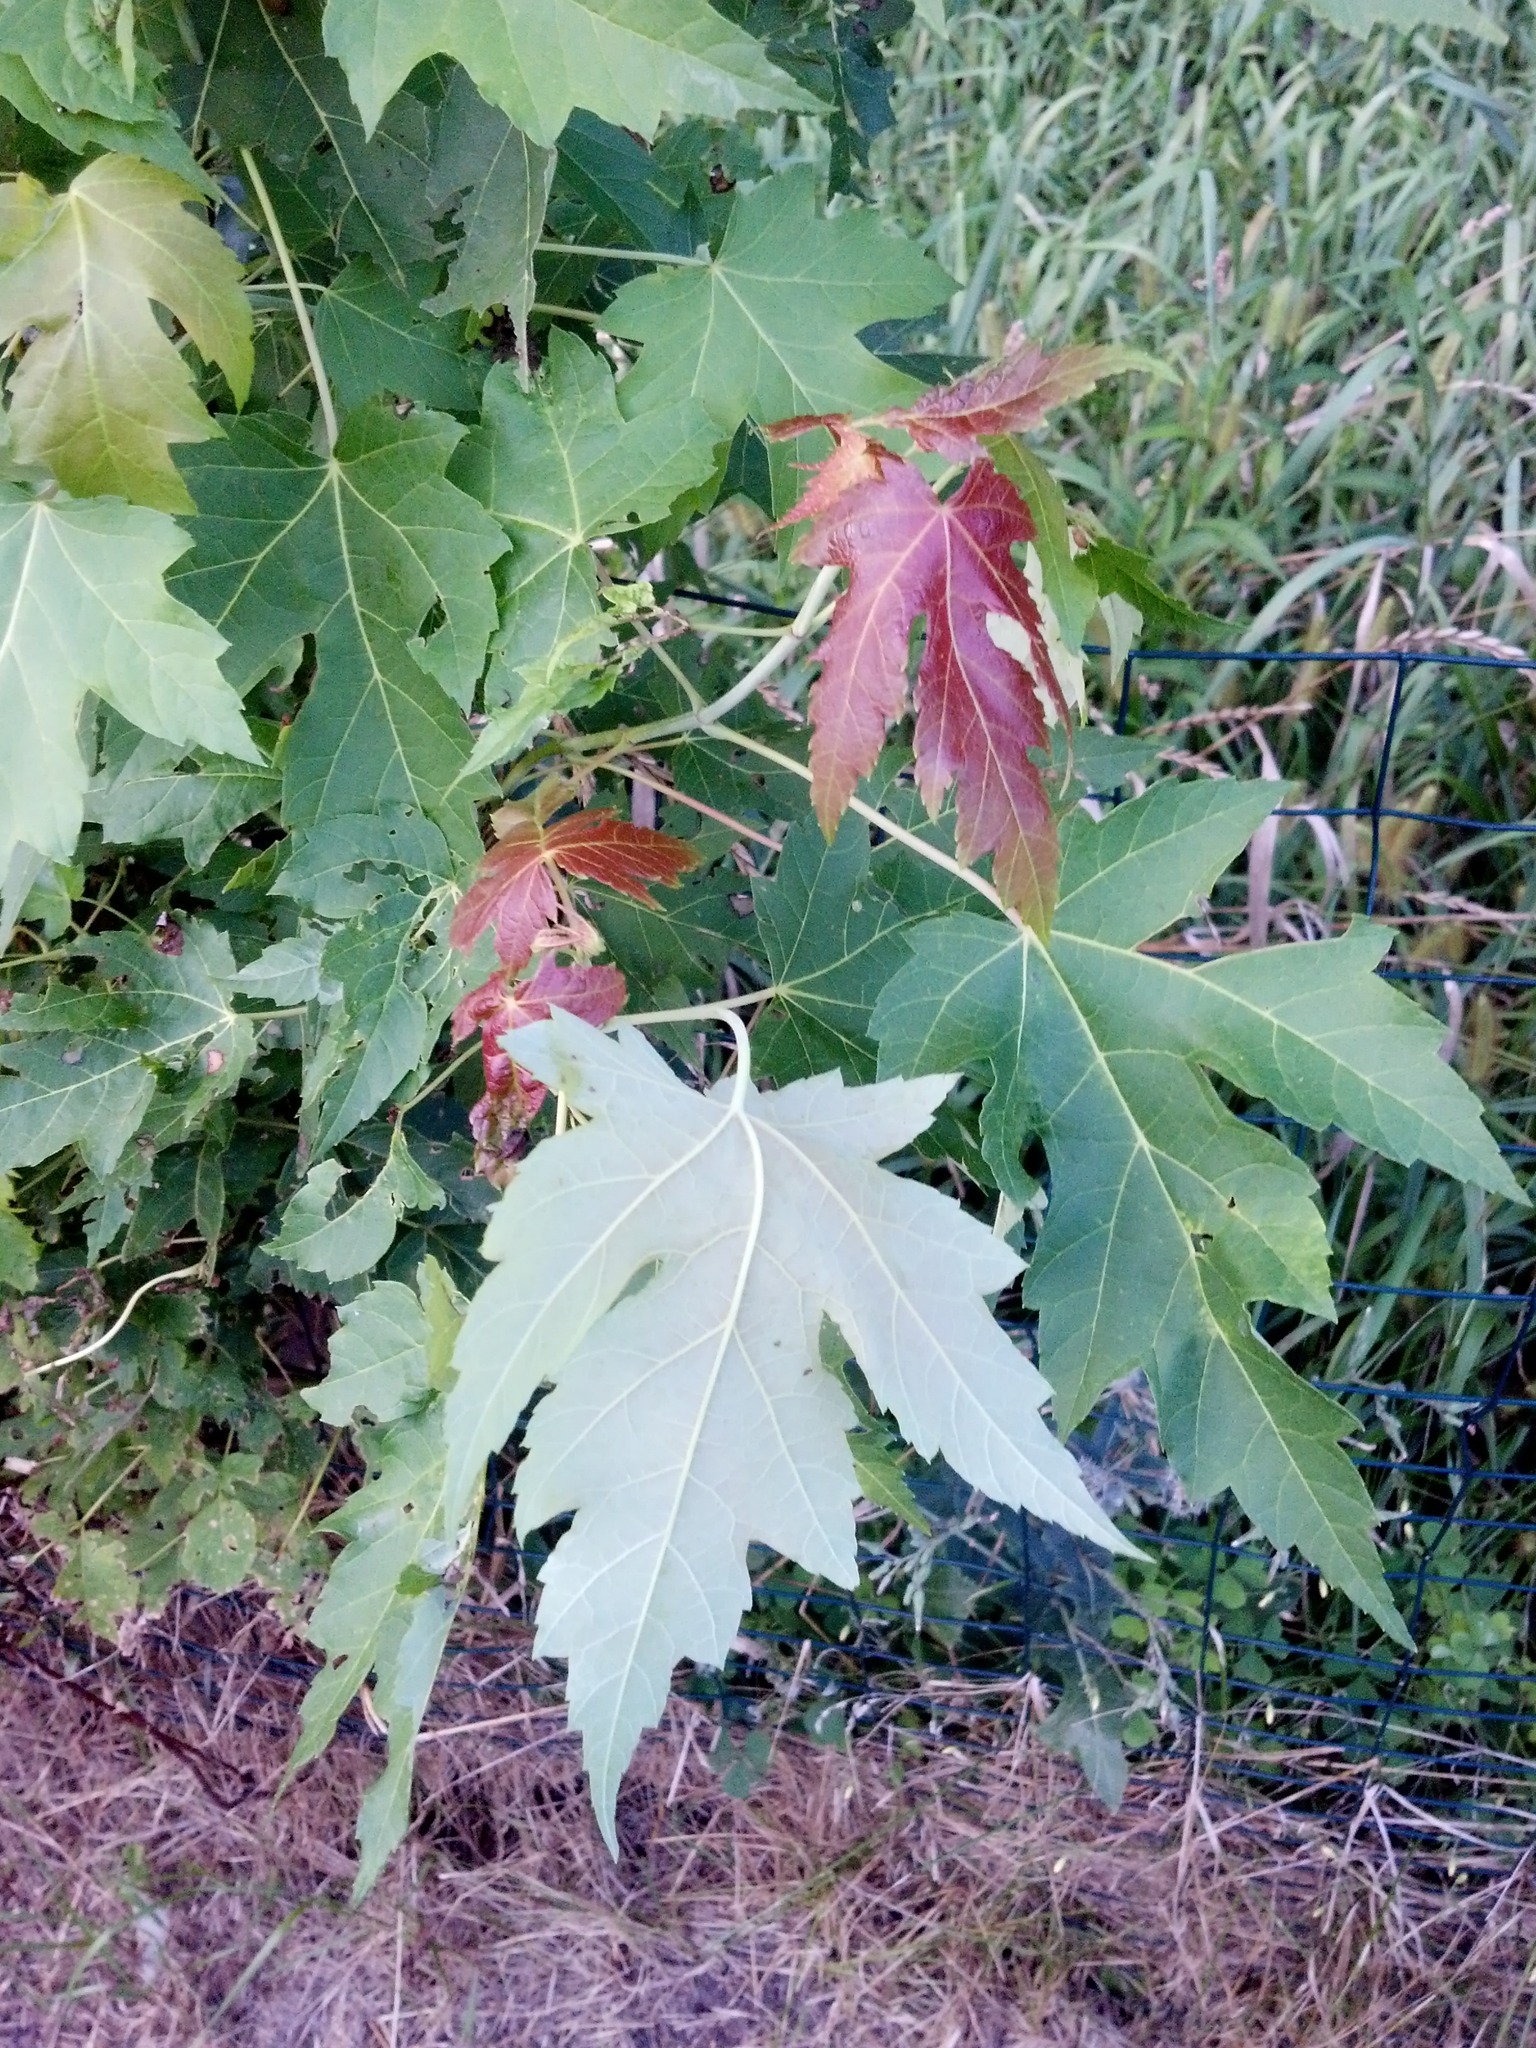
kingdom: Plantae
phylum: Tracheophyta
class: Magnoliopsida
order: Sapindales
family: Sapindaceae
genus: Acer
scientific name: Acer saccharinum
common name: Silver maple
